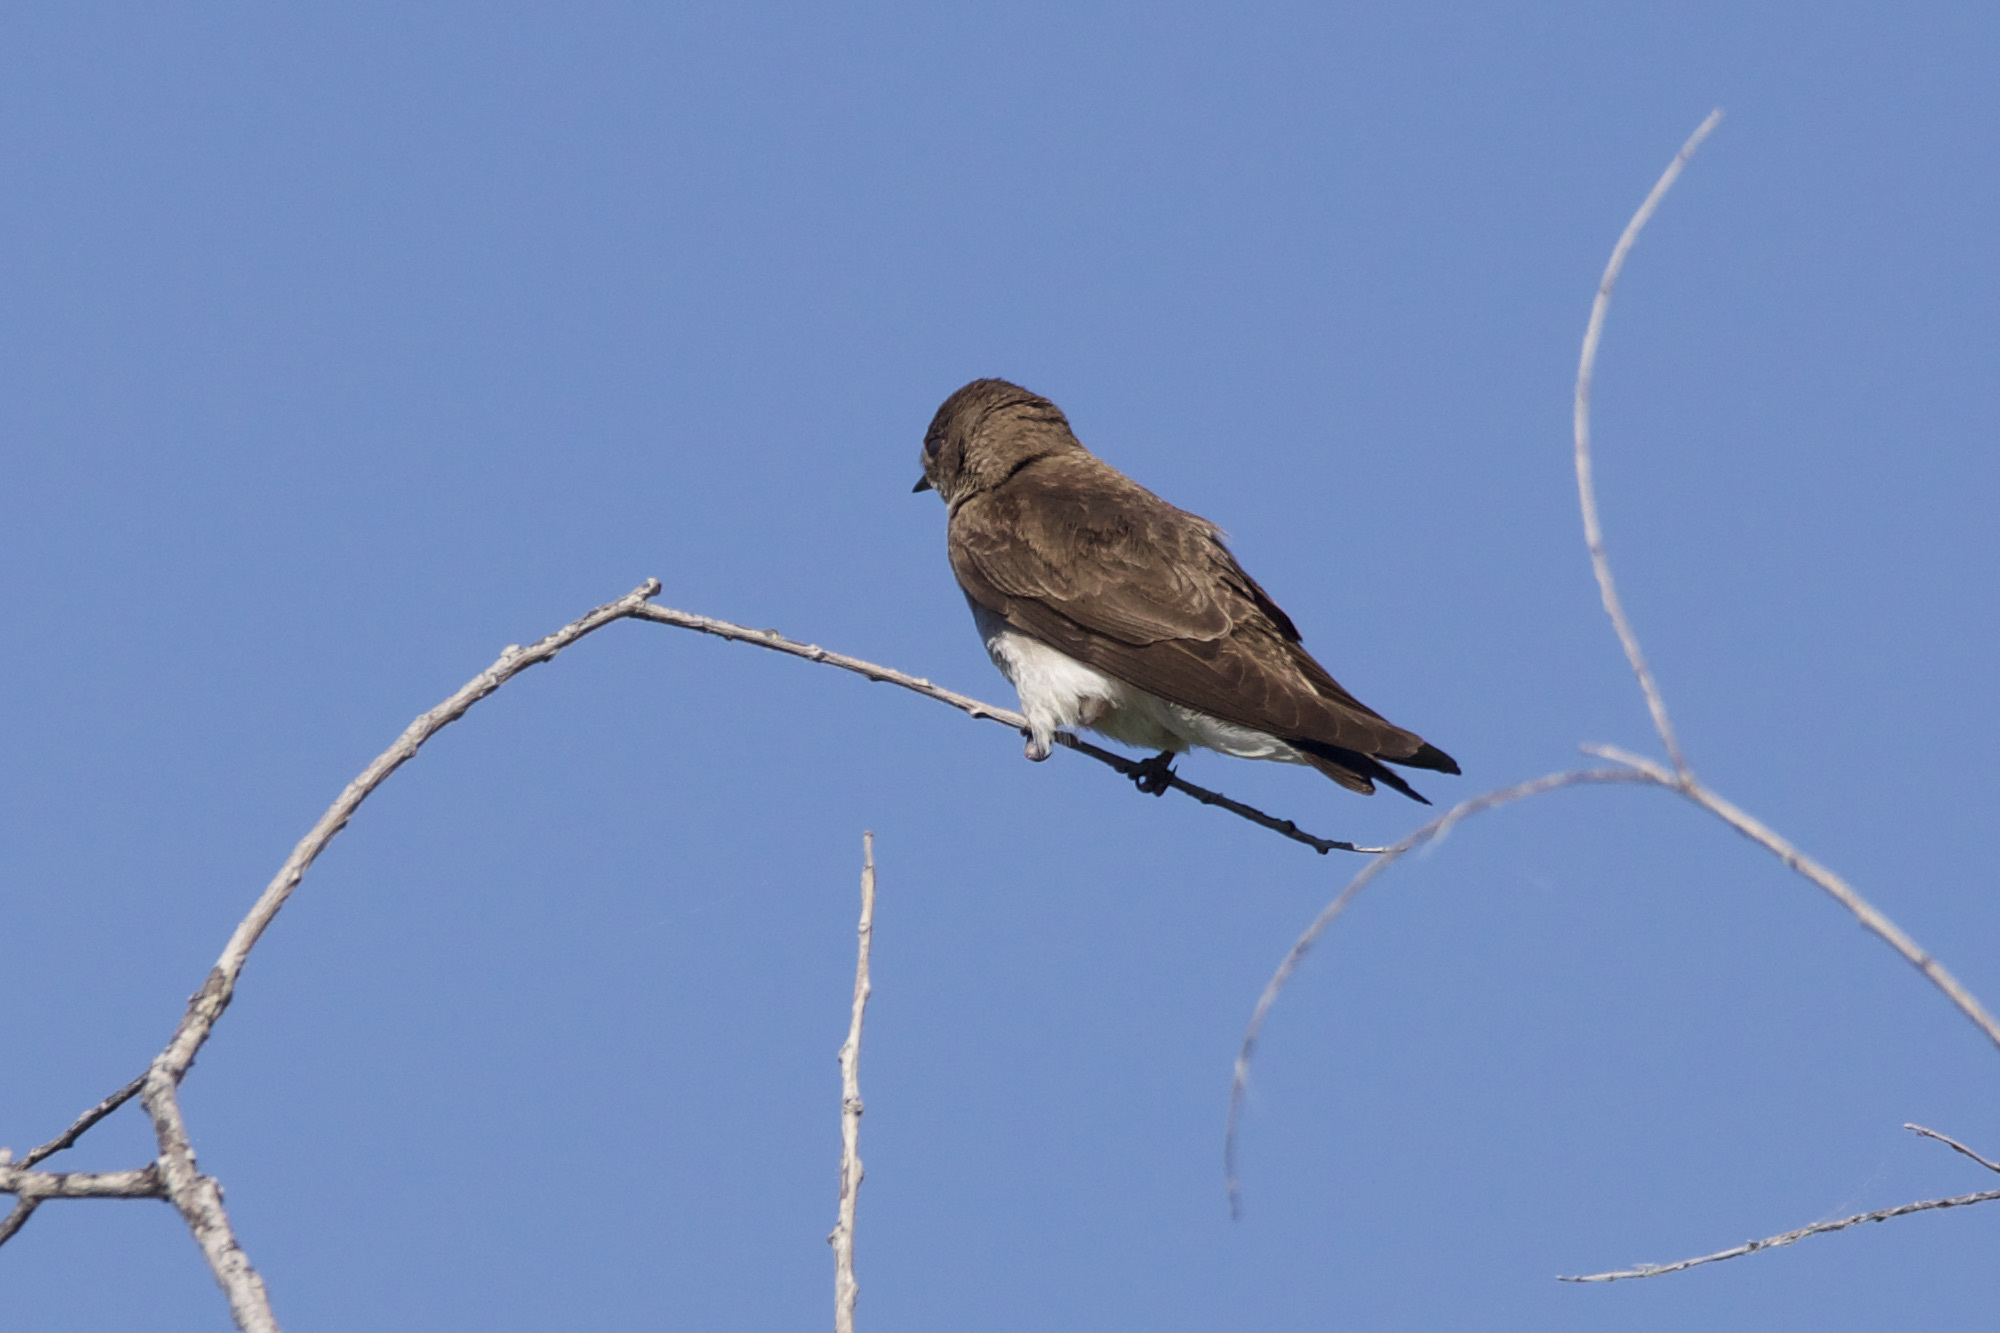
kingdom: Animalia
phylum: Chordata
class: Aves
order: Passeriformes
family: Hirundinidae
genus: Stelgidopteryx
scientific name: Stelgidopteryx serripennis
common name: Northern rough-winged swallow
